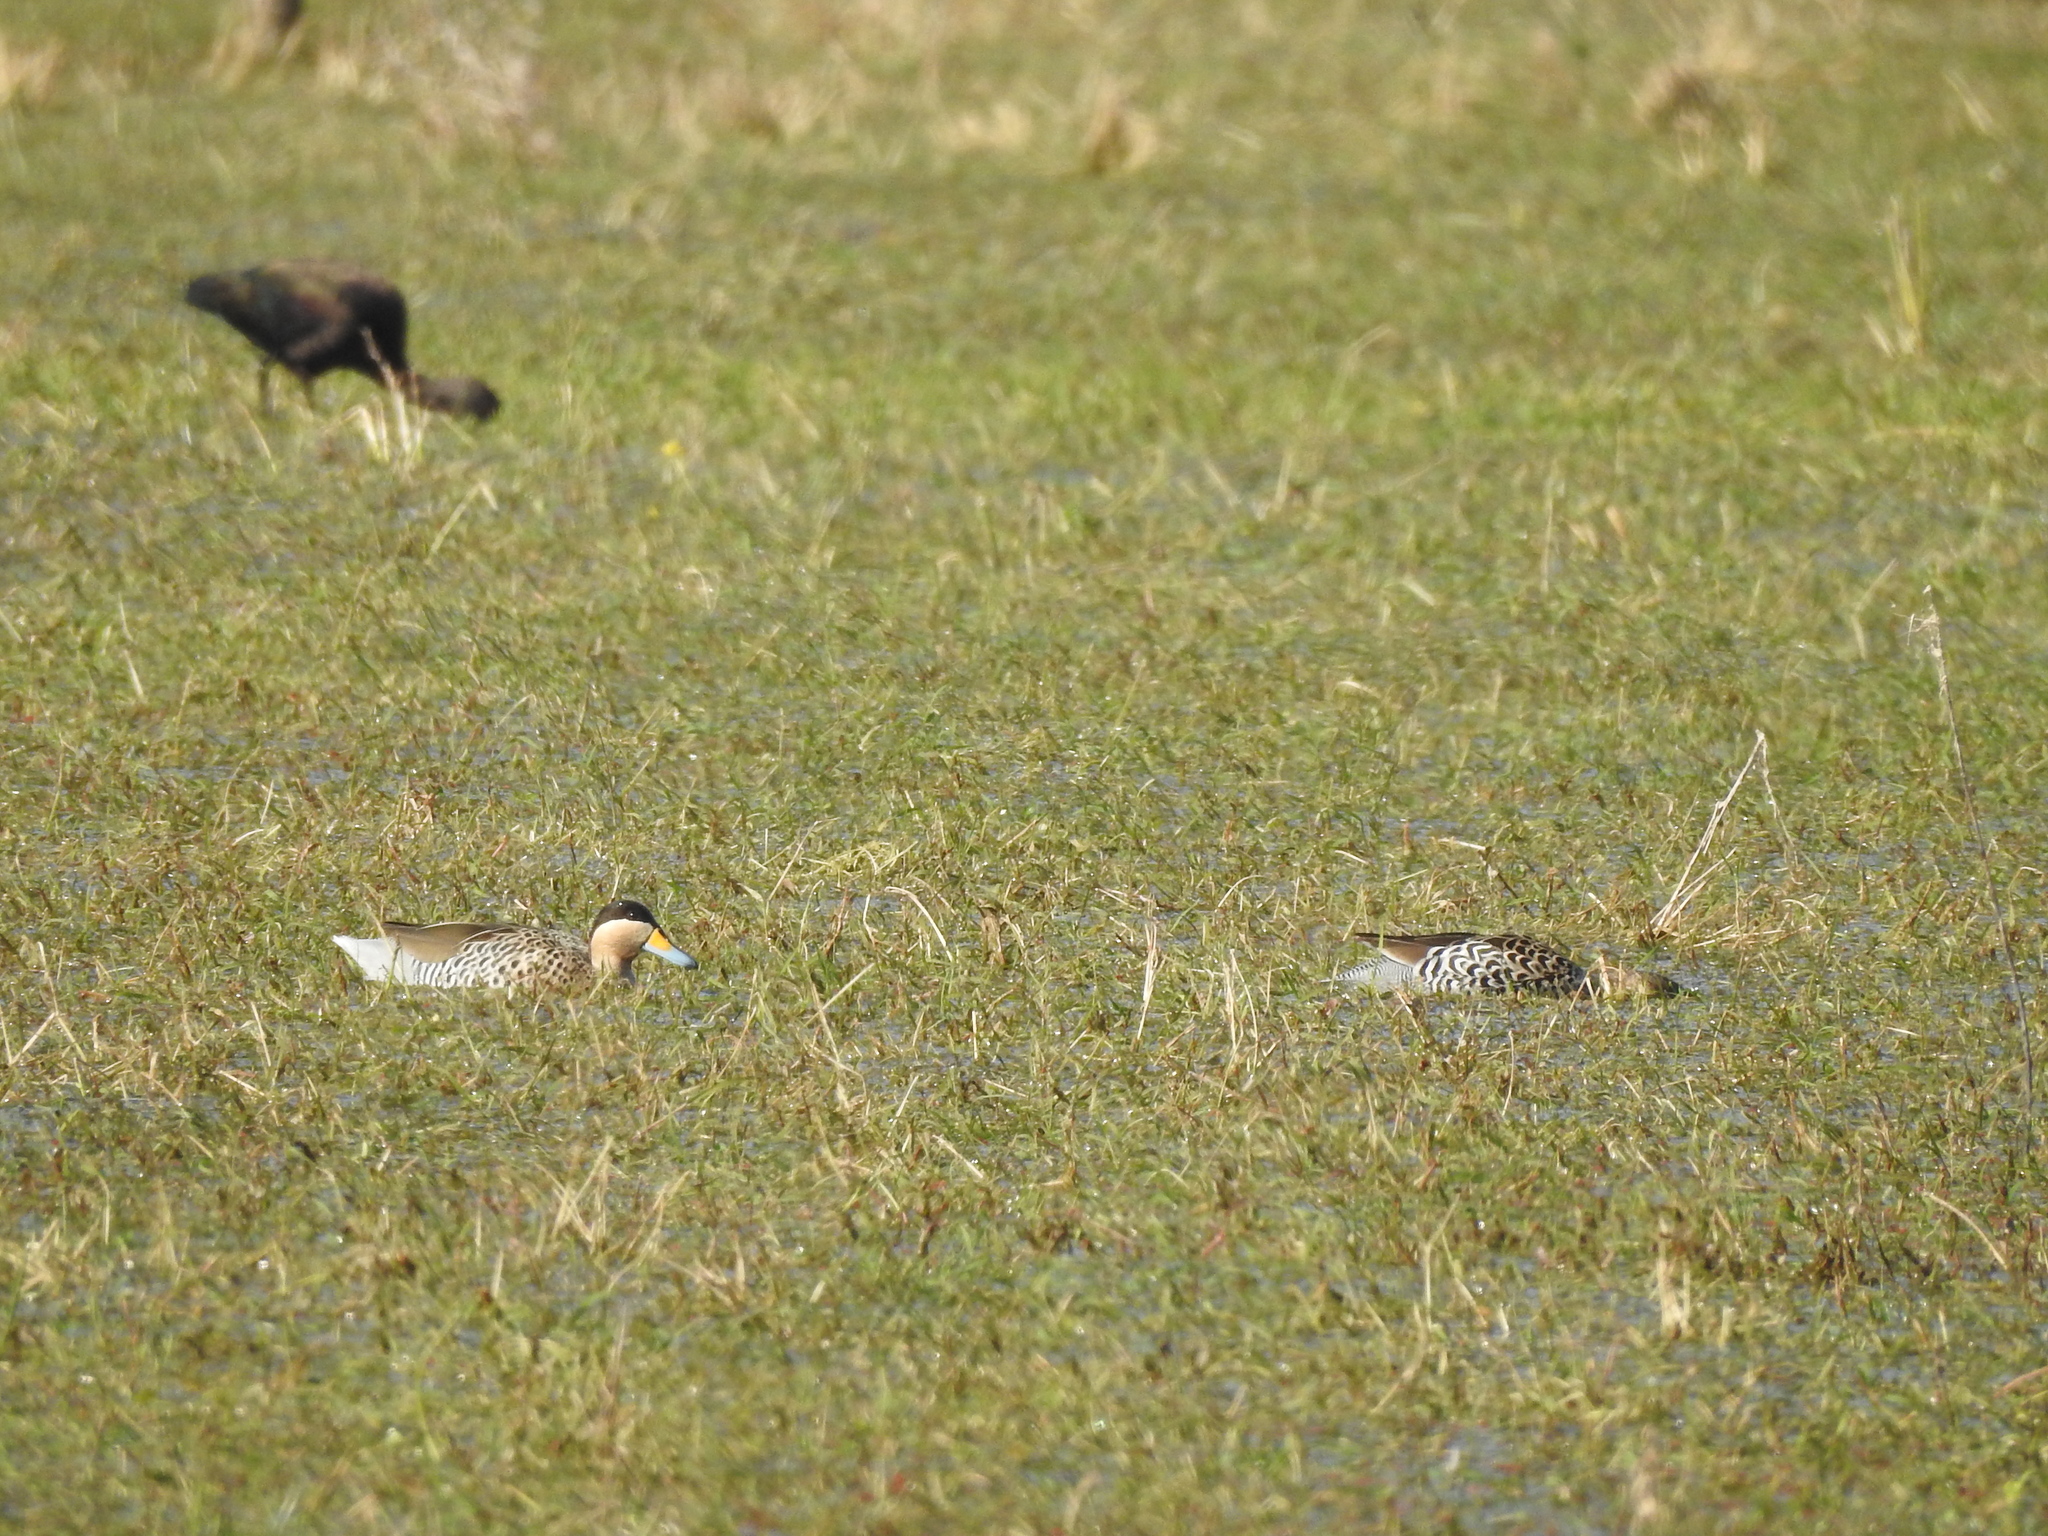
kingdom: Animalia
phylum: Chordata
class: Aves
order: Anseriformes
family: Anatidae
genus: Spatula
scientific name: Spatula versicolor
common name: Silver teal
